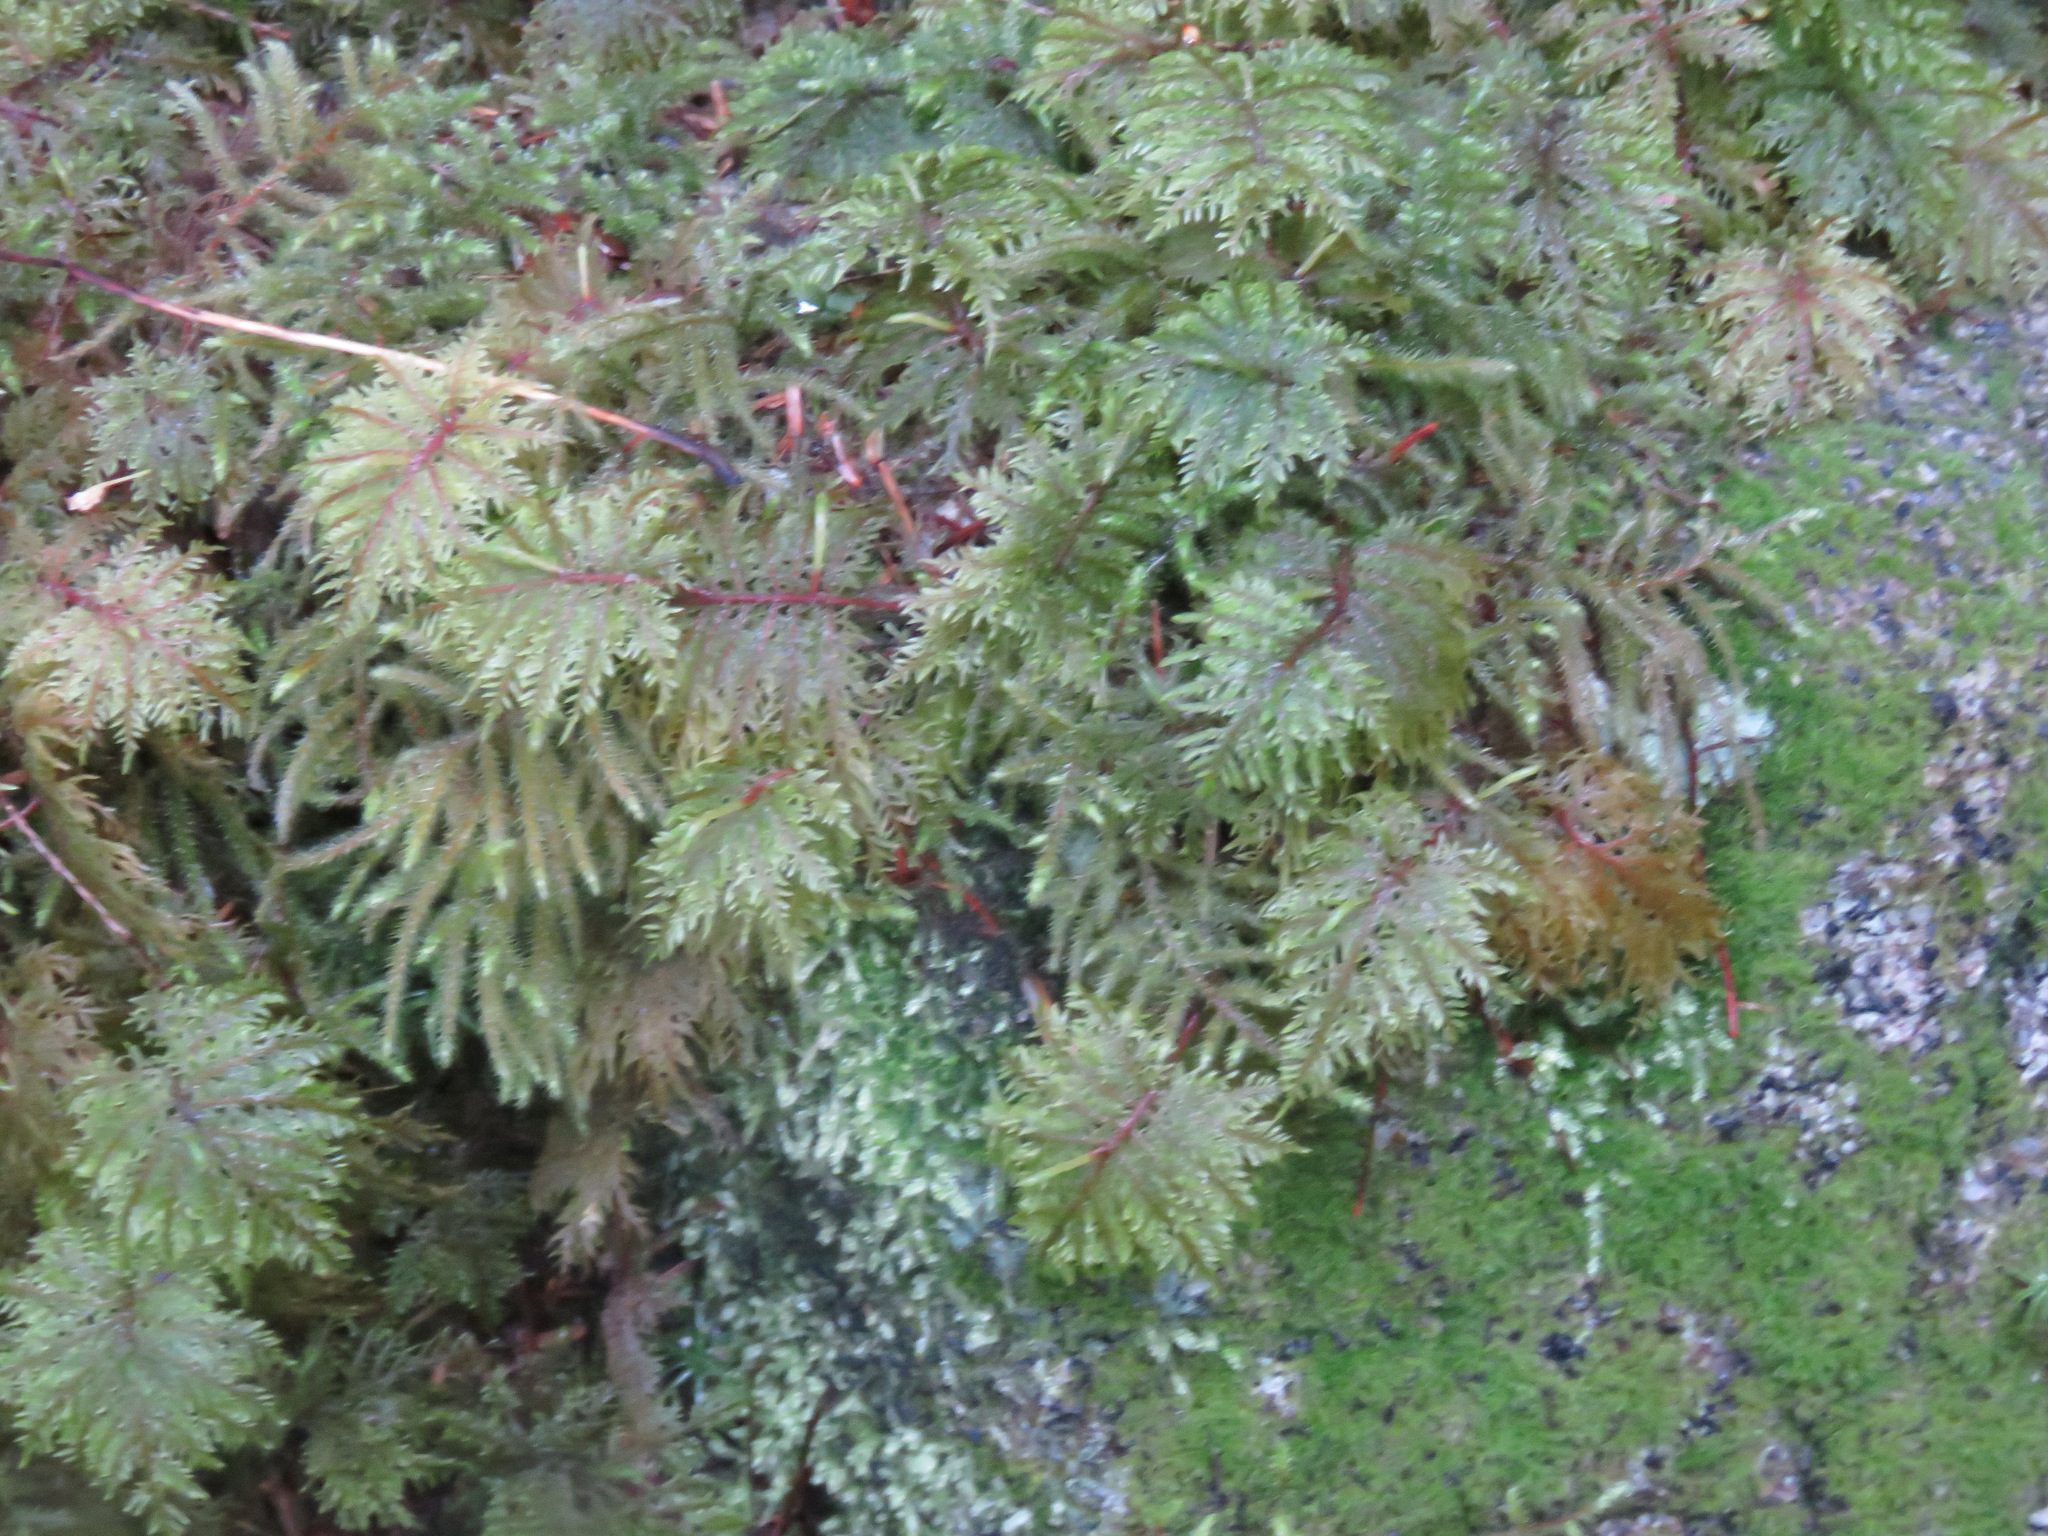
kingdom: Plantae
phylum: Bryophyta
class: Bryopsida
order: Hypnales
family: Hylocomiaceae
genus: Hylocomium
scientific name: Hylocomium splendens
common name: Stairstep moss
